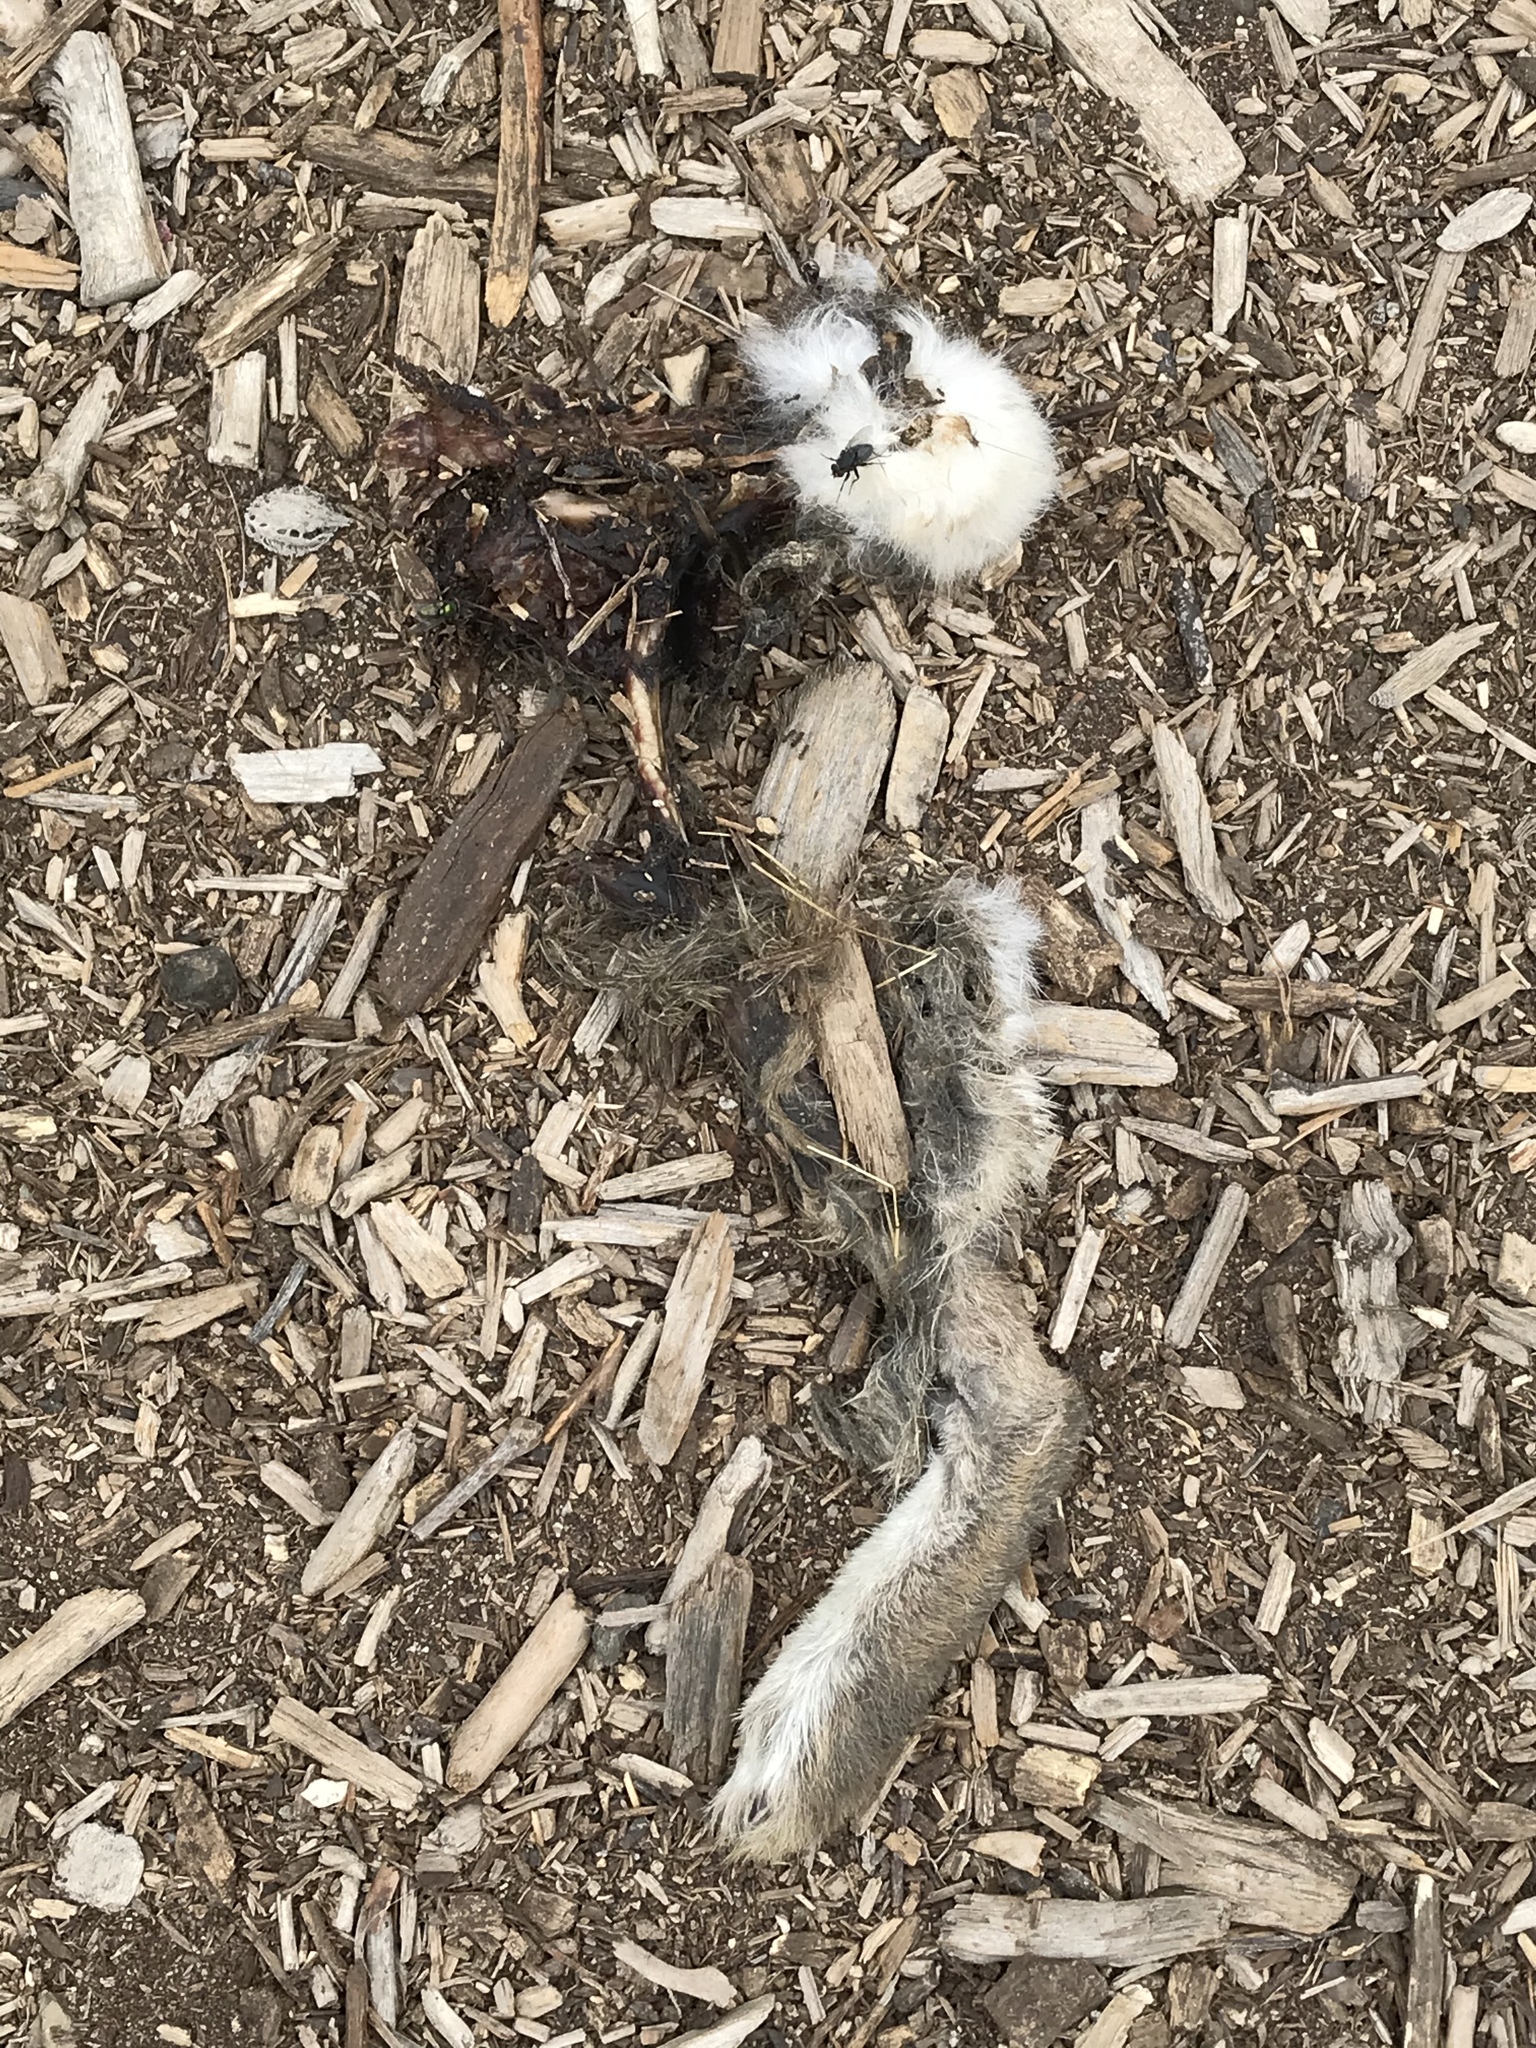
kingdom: Animalia
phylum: Chordata
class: Mammalia
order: Lagomorpha
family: Leporidae
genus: Sylvilagus
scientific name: Sylvilagus audubonii
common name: Desert cottontail
